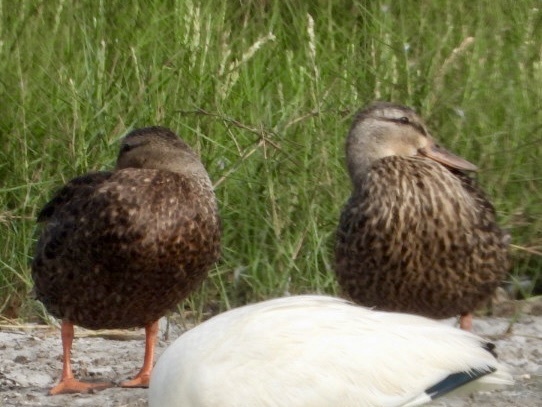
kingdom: Animalia
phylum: Chordata
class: Aves
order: Anseriformes
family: Anatidae
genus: Anas
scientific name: Anas fulvigula
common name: Mottled duck
